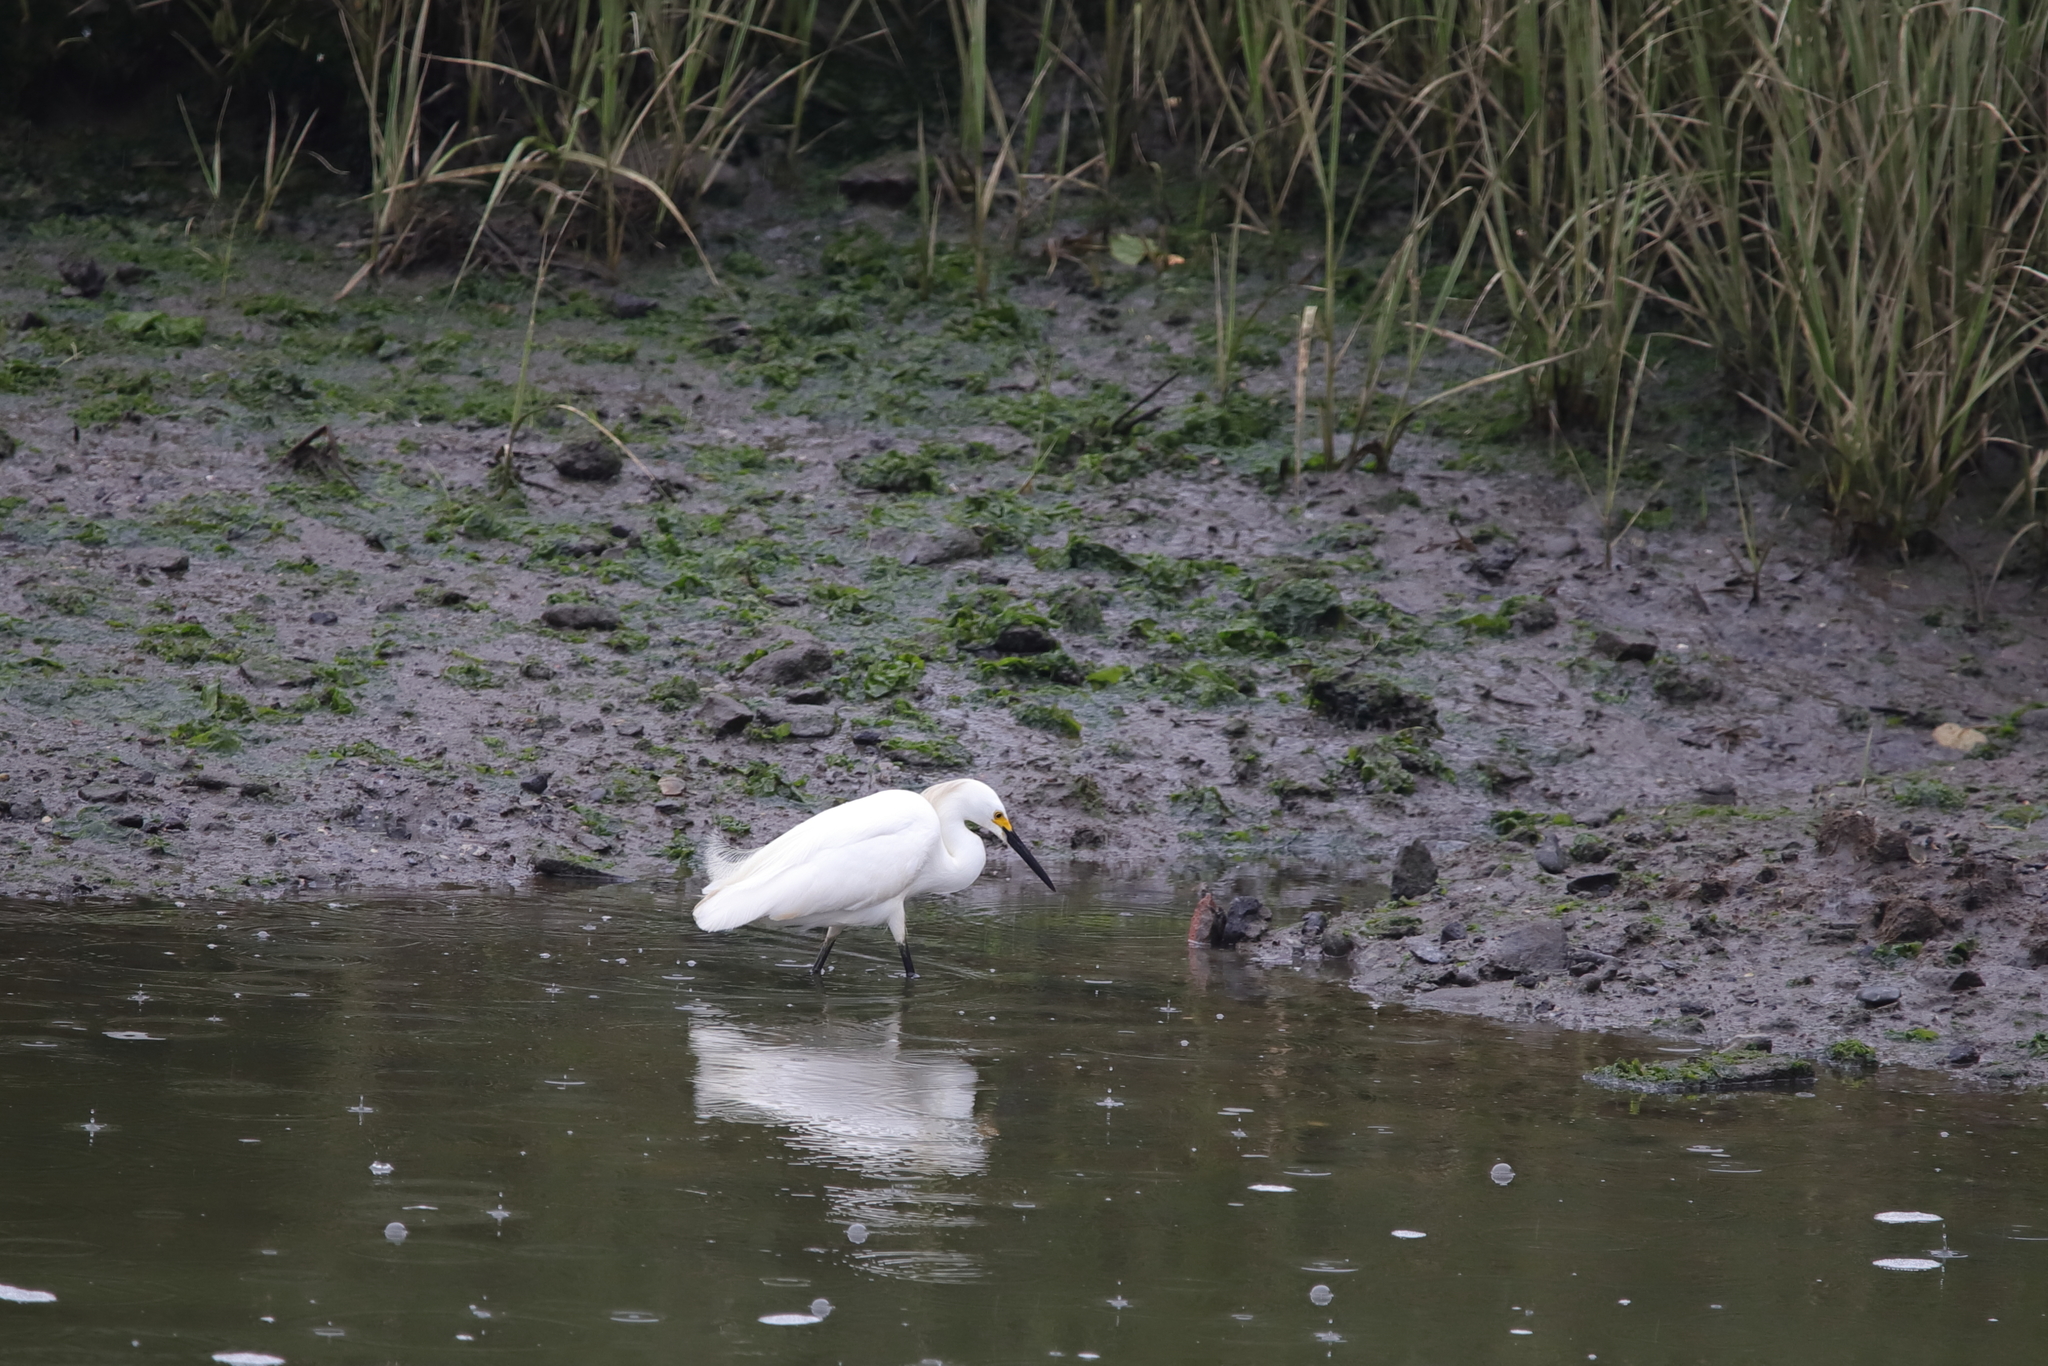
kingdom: Animalia
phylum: Chordata
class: Aves
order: Pelecaniformes
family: Ardeidae
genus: Egretta
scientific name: Egretta thula
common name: Snowy egret
